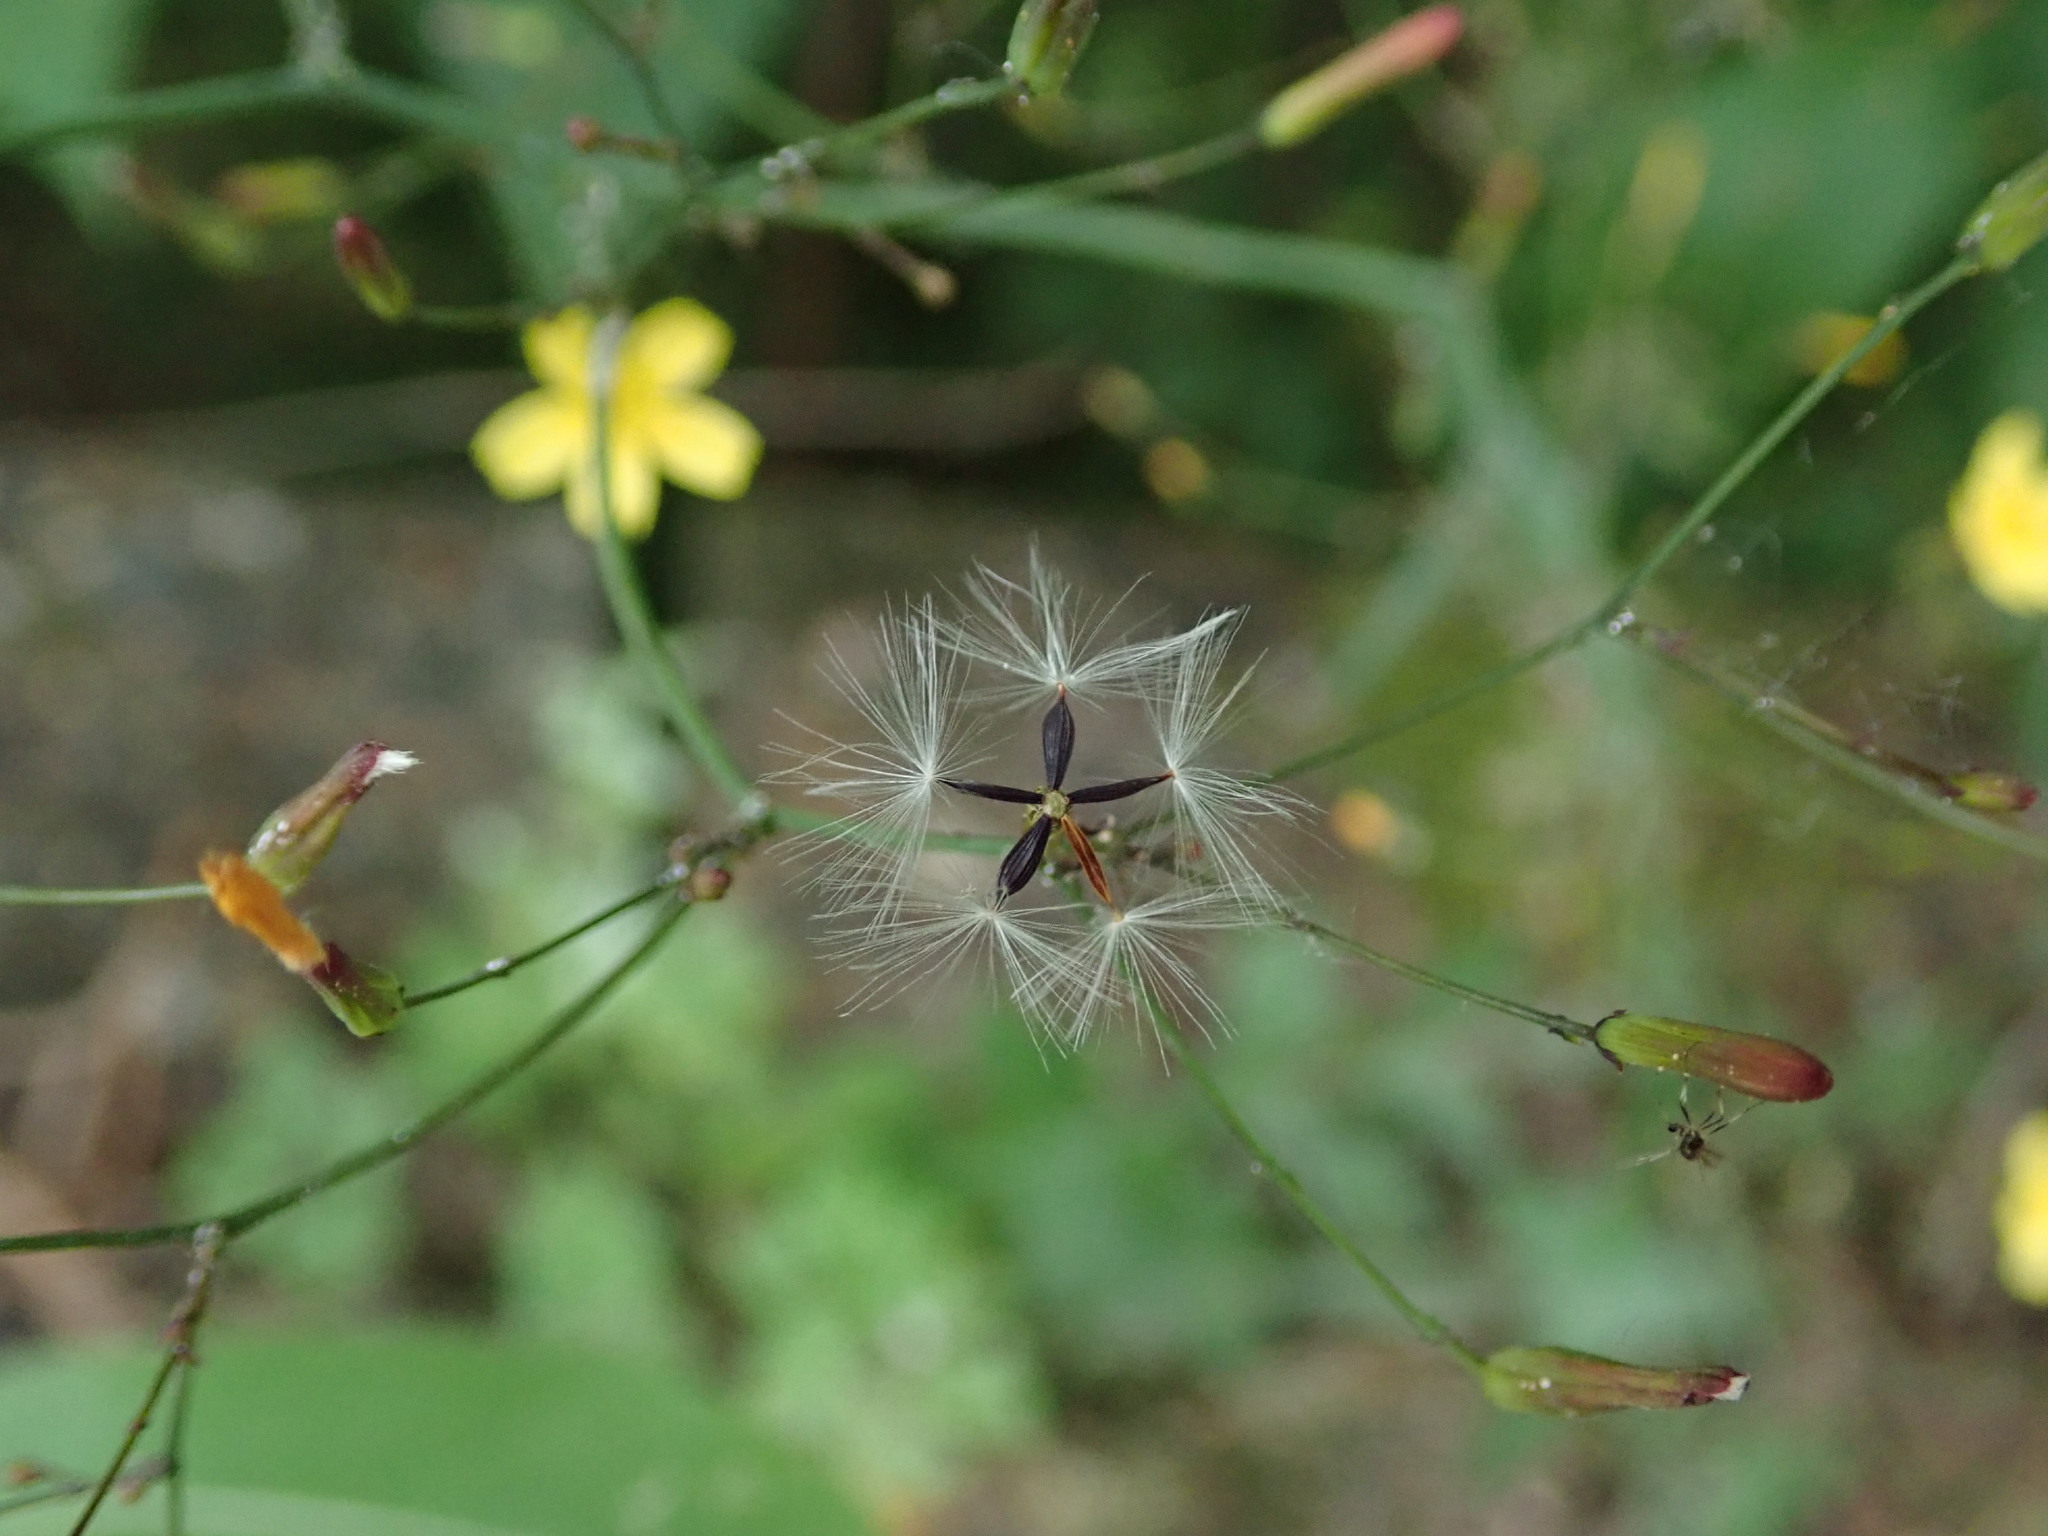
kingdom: Plantae
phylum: Tracheophyta
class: Magnoliopsida
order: Asterales
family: Asteraceae
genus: Mycelis
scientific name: Mycelis muralis
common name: Wall lettuce
